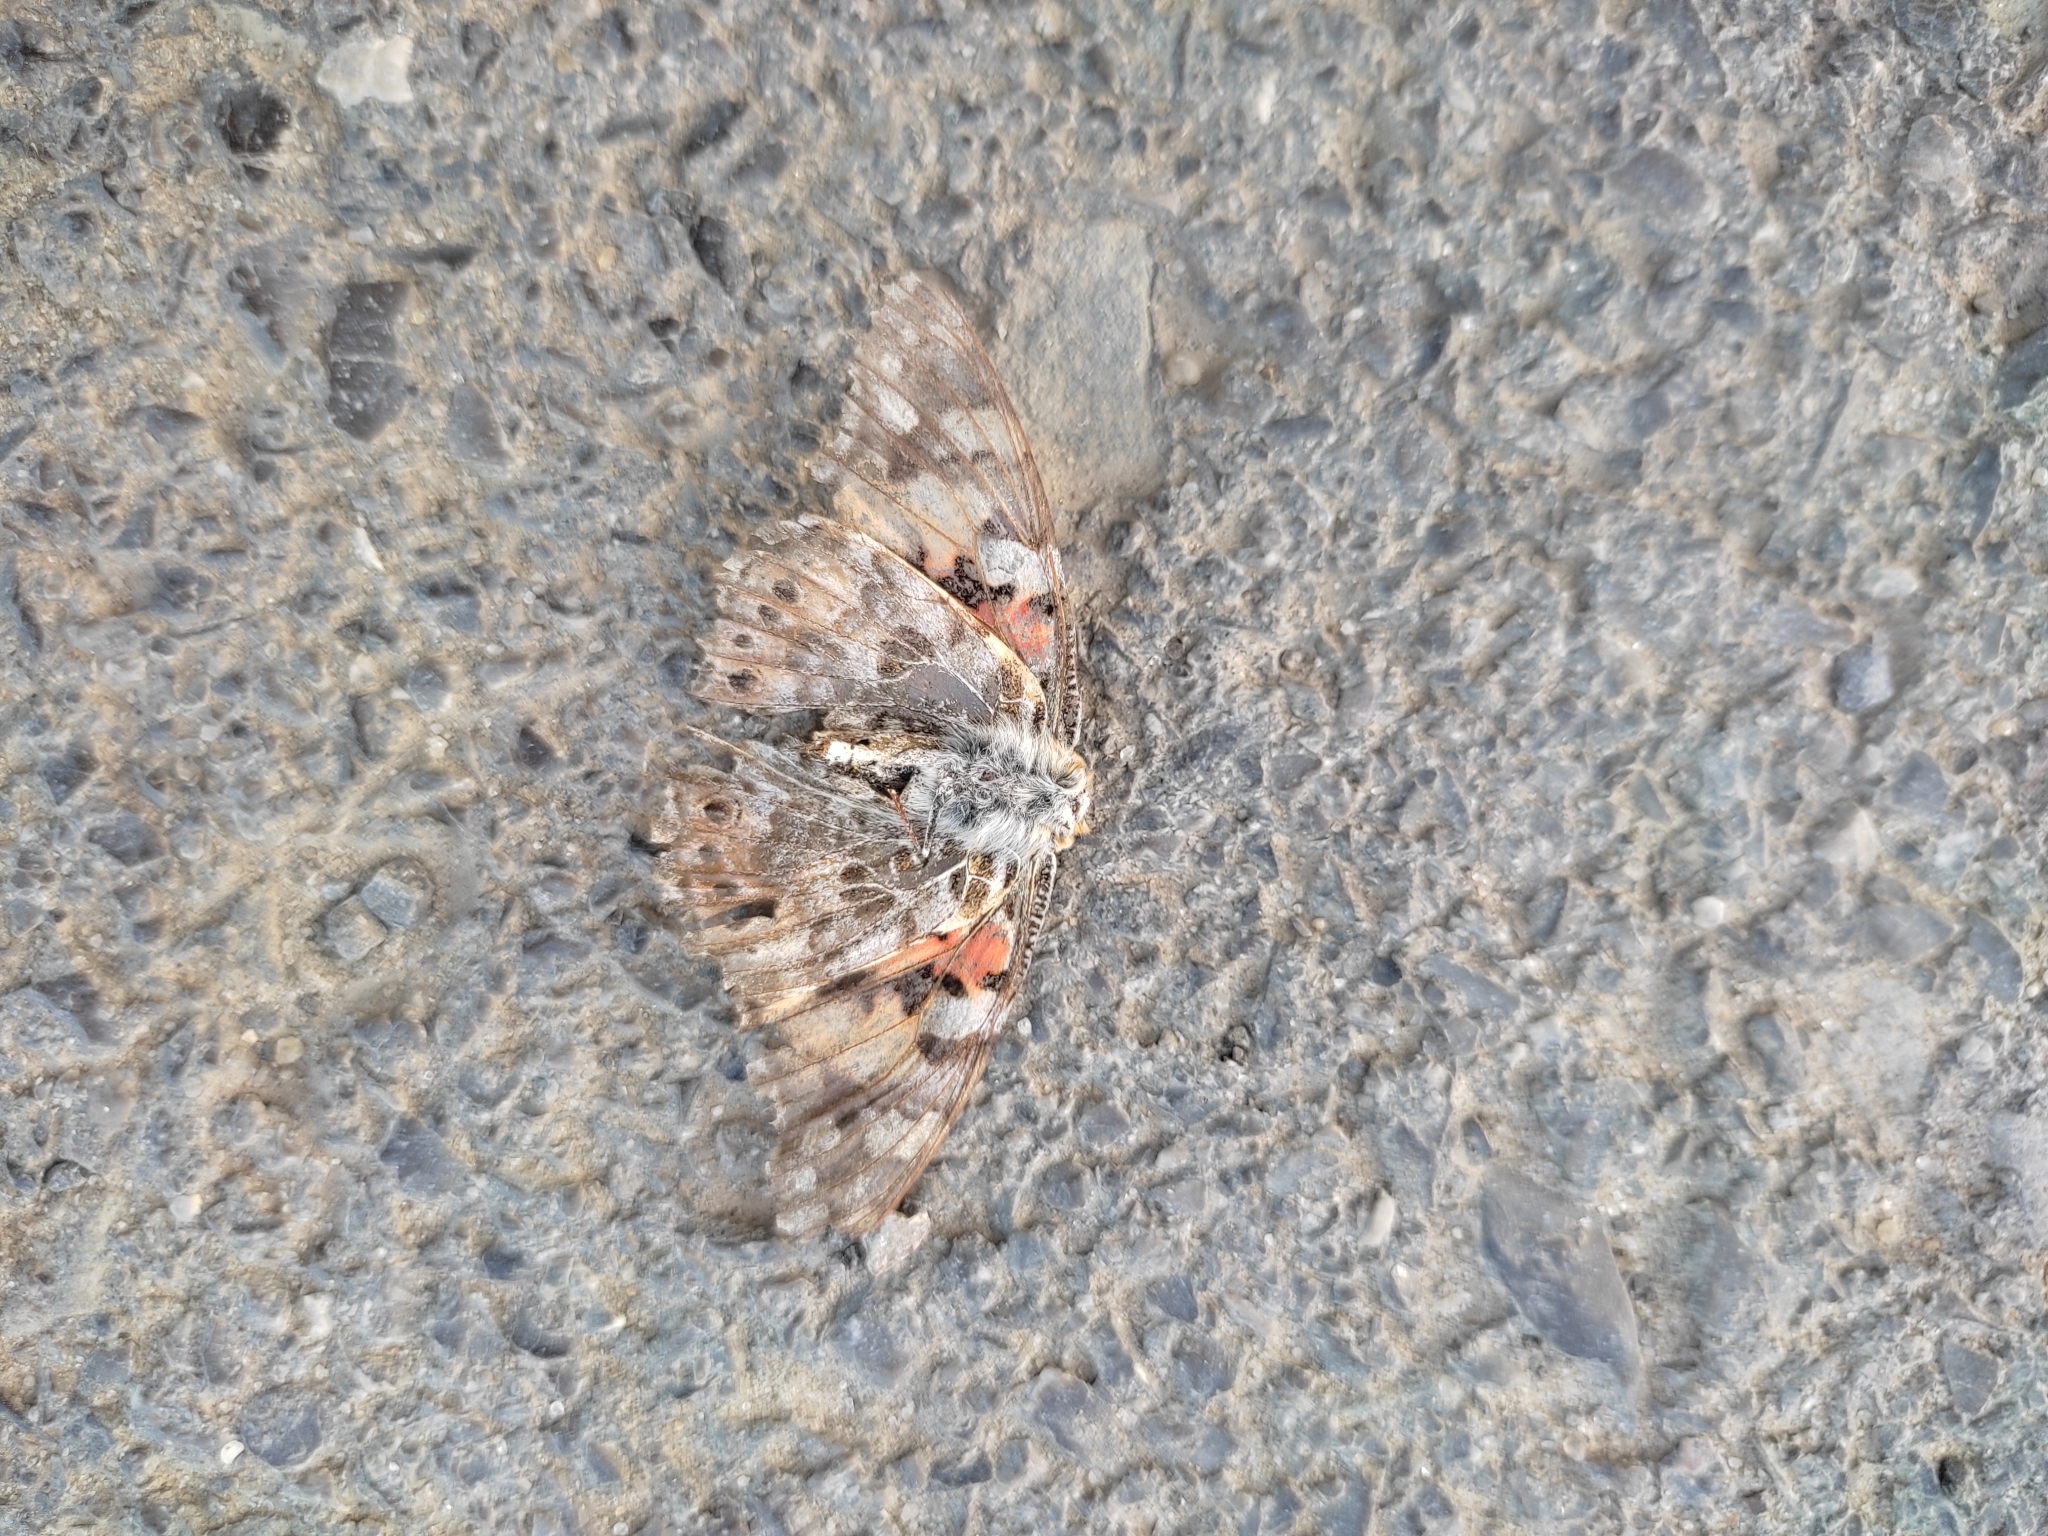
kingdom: Animalia
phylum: Arthropoda
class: Insecta
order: Lepidoptera
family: Nymphalidae
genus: Vanessa
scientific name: Vanessa cardui
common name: Painted lady
